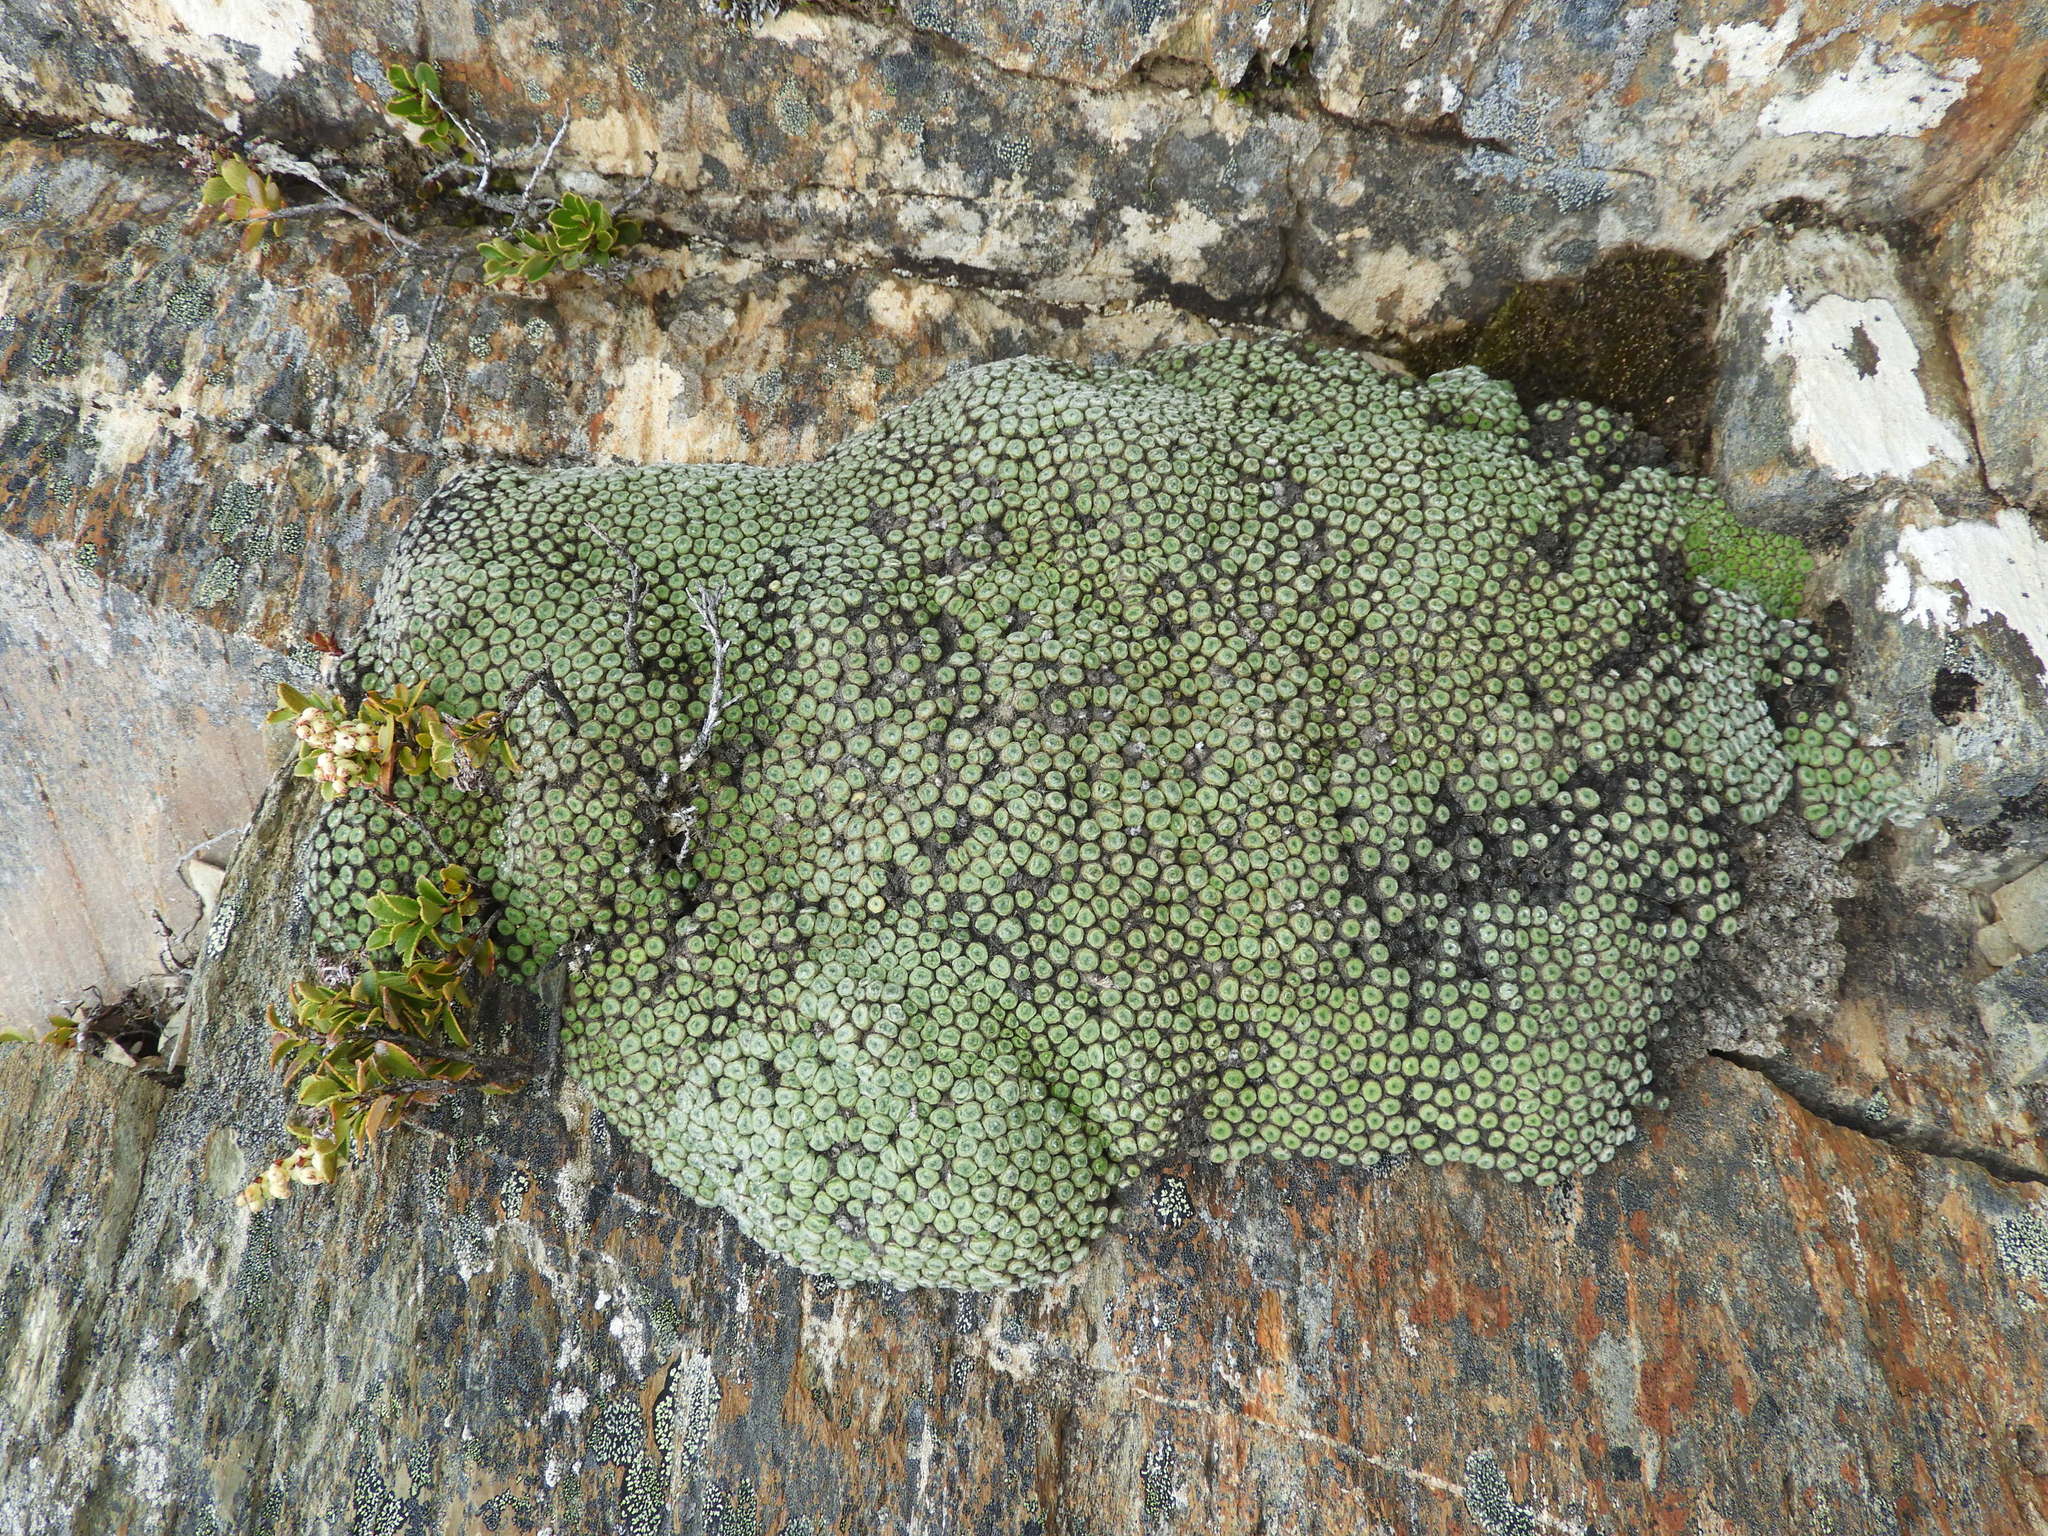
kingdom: Plantae
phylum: Tracheophyta
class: Magnoliopsida
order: Asterales
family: Asteraceae
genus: Raoulia
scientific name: Raoulia buchananii
